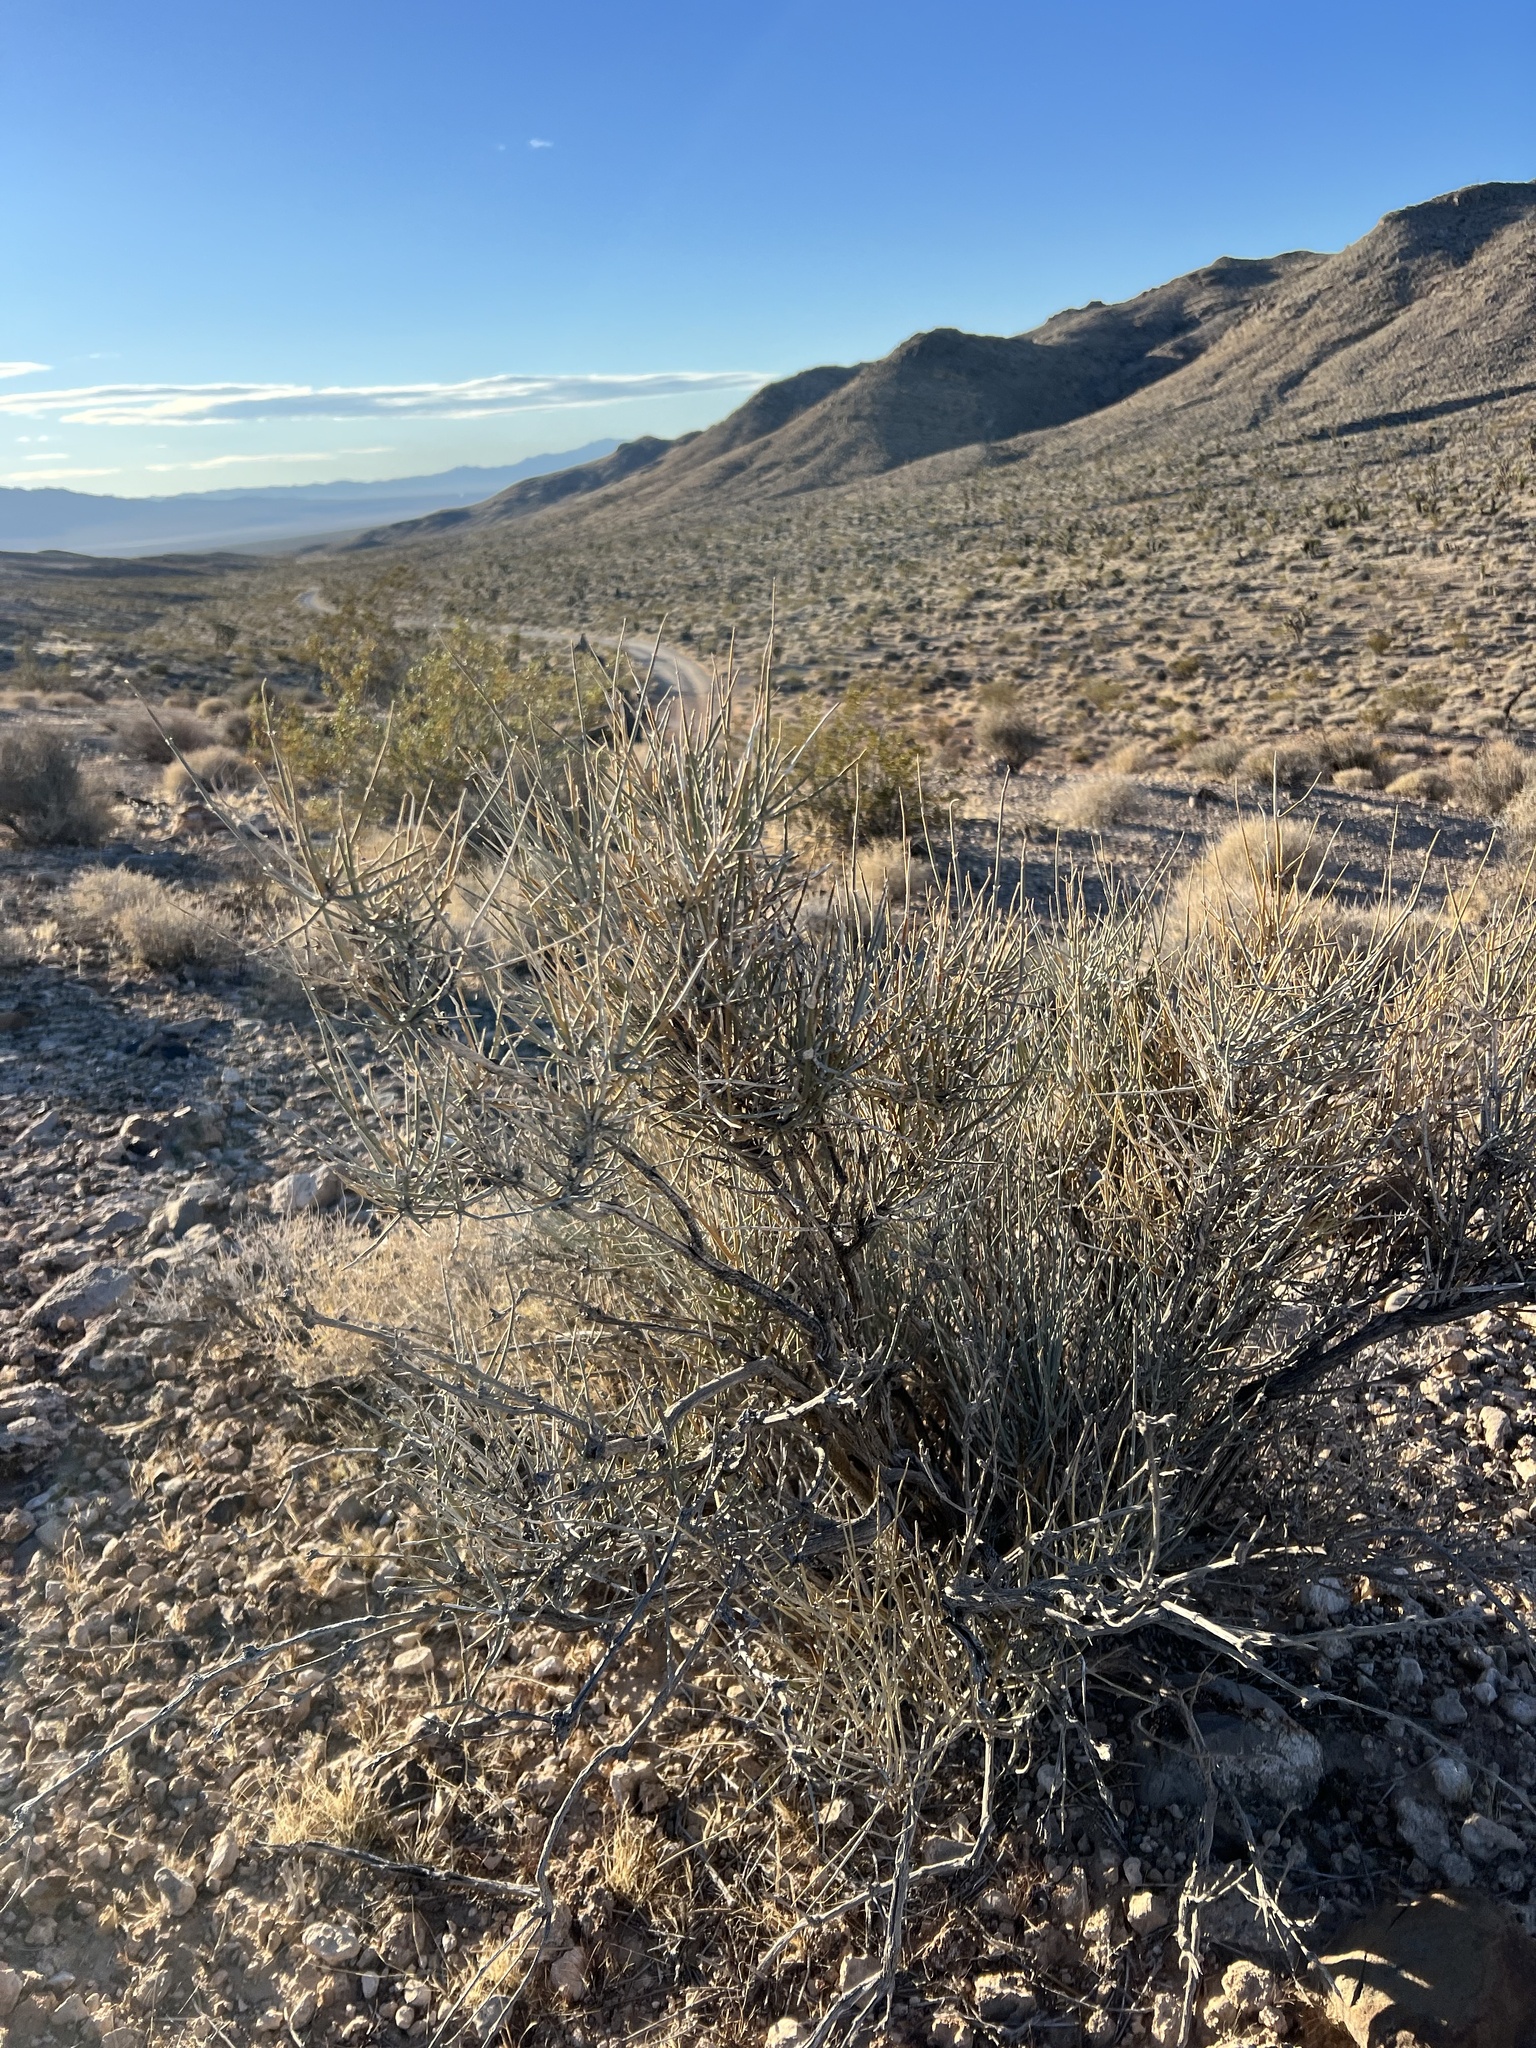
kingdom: Plantae
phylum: Tracheophyta
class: Gnetopsida
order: Ephedrales
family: Ephedraceae
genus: Ephedra
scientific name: Ephedra nevadensis
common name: Gray ephedra
